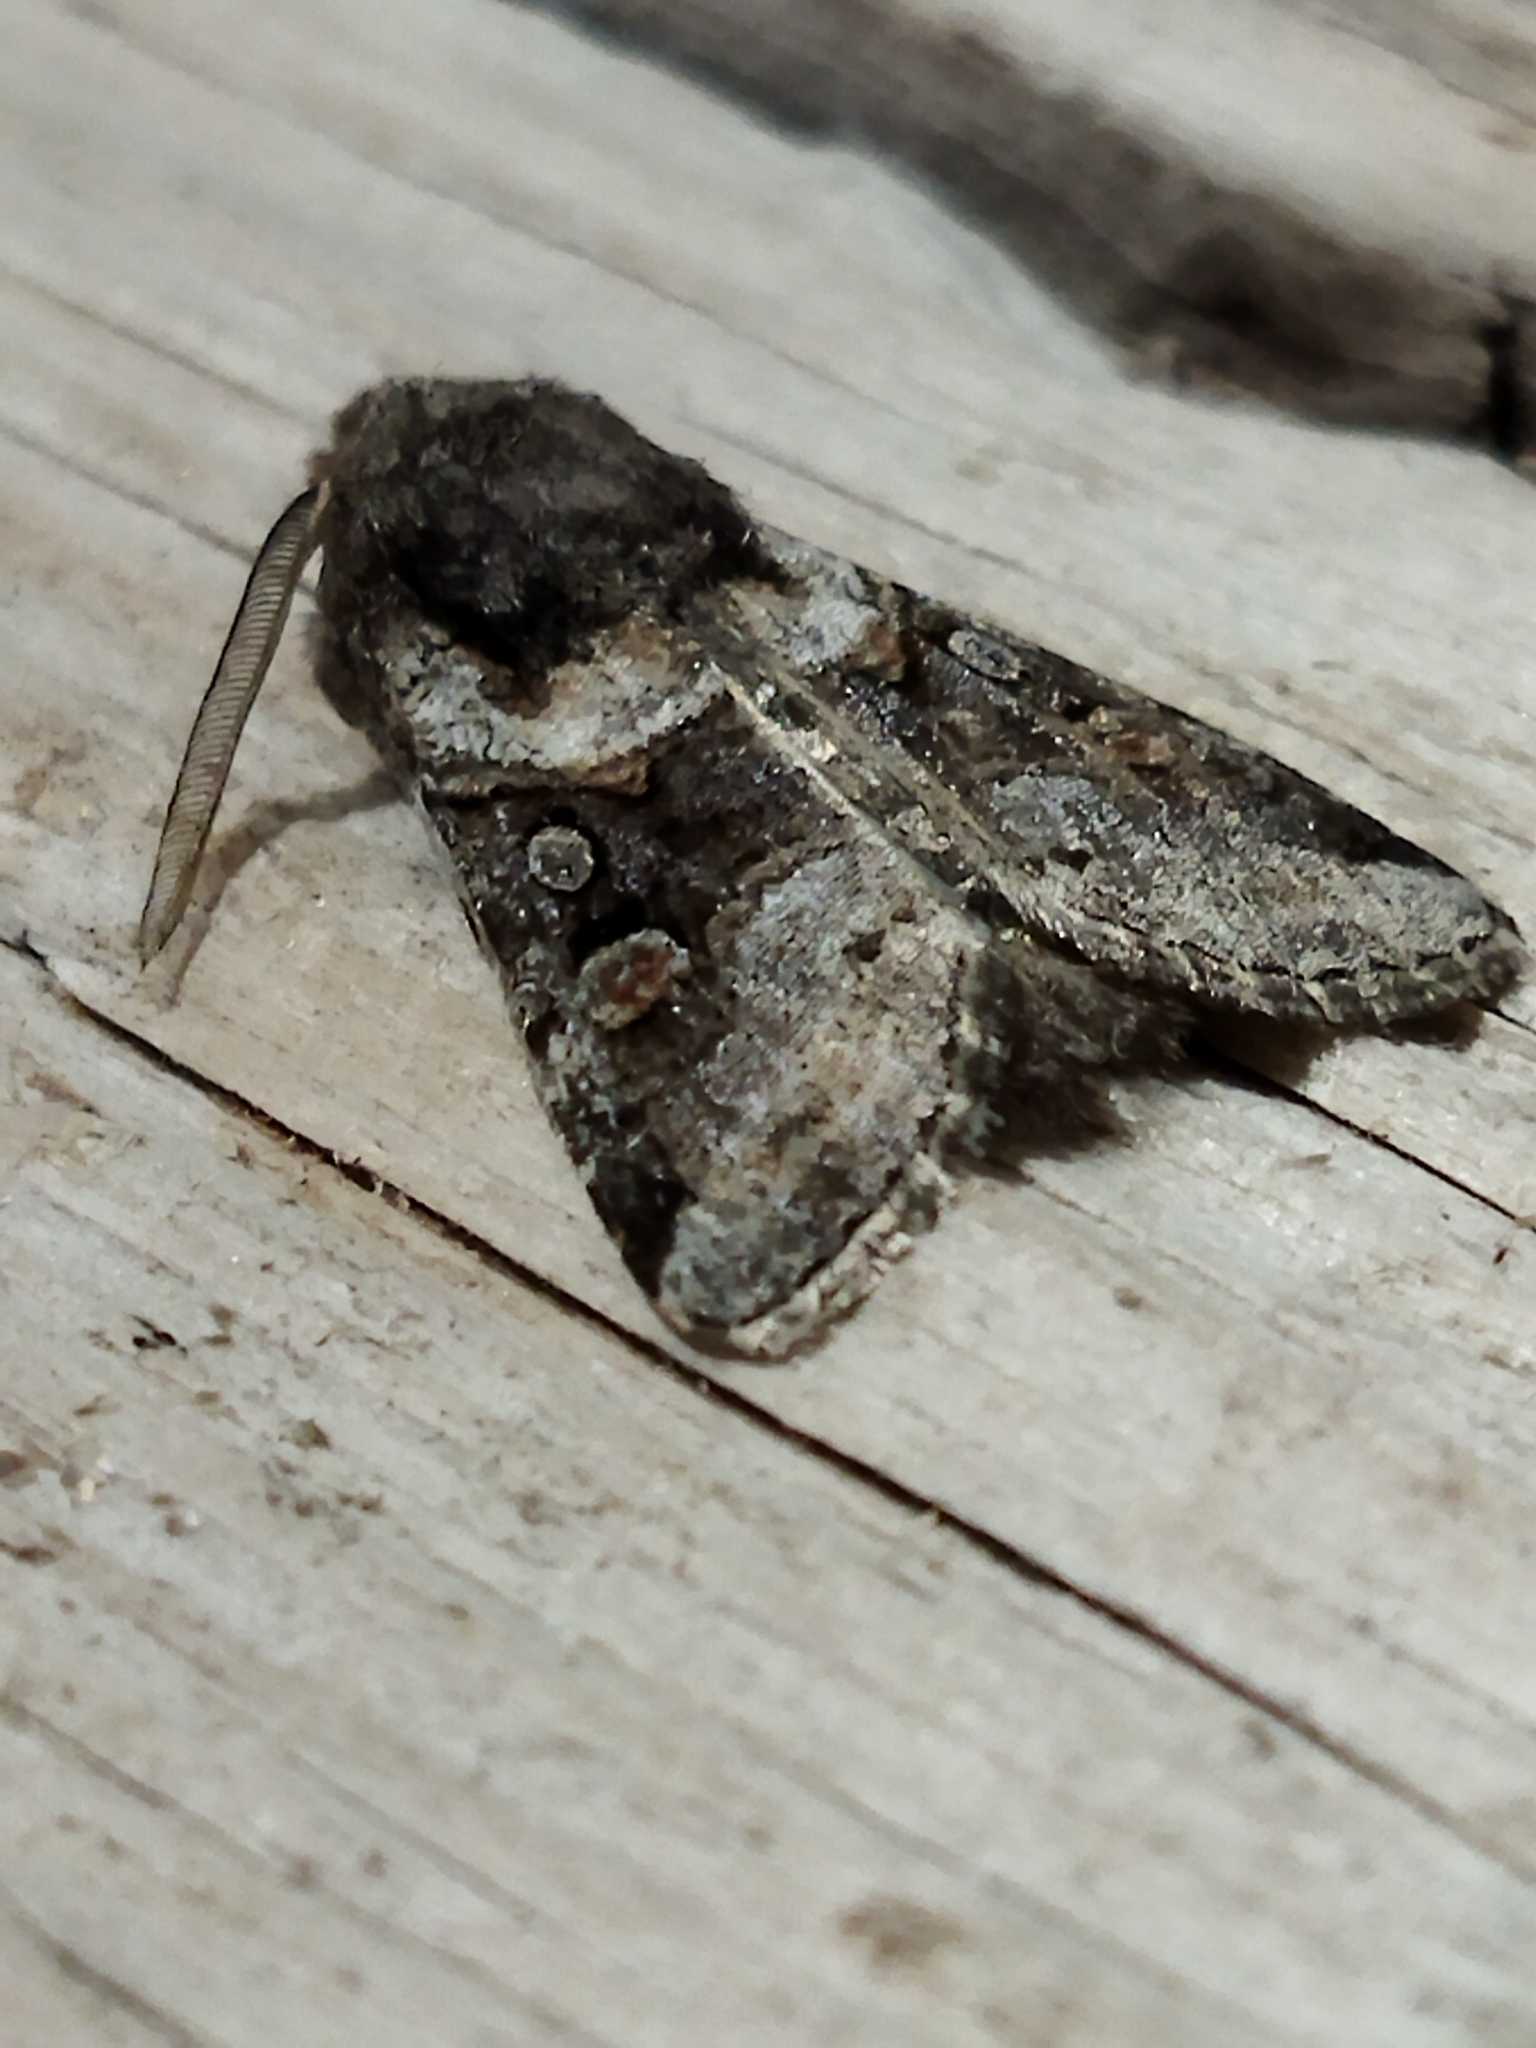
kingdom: Animalia
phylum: Arthropoda
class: Insecta
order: Lepidoptera
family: Noctuidae
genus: Cleoceris
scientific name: Cleoceris scoriacea
